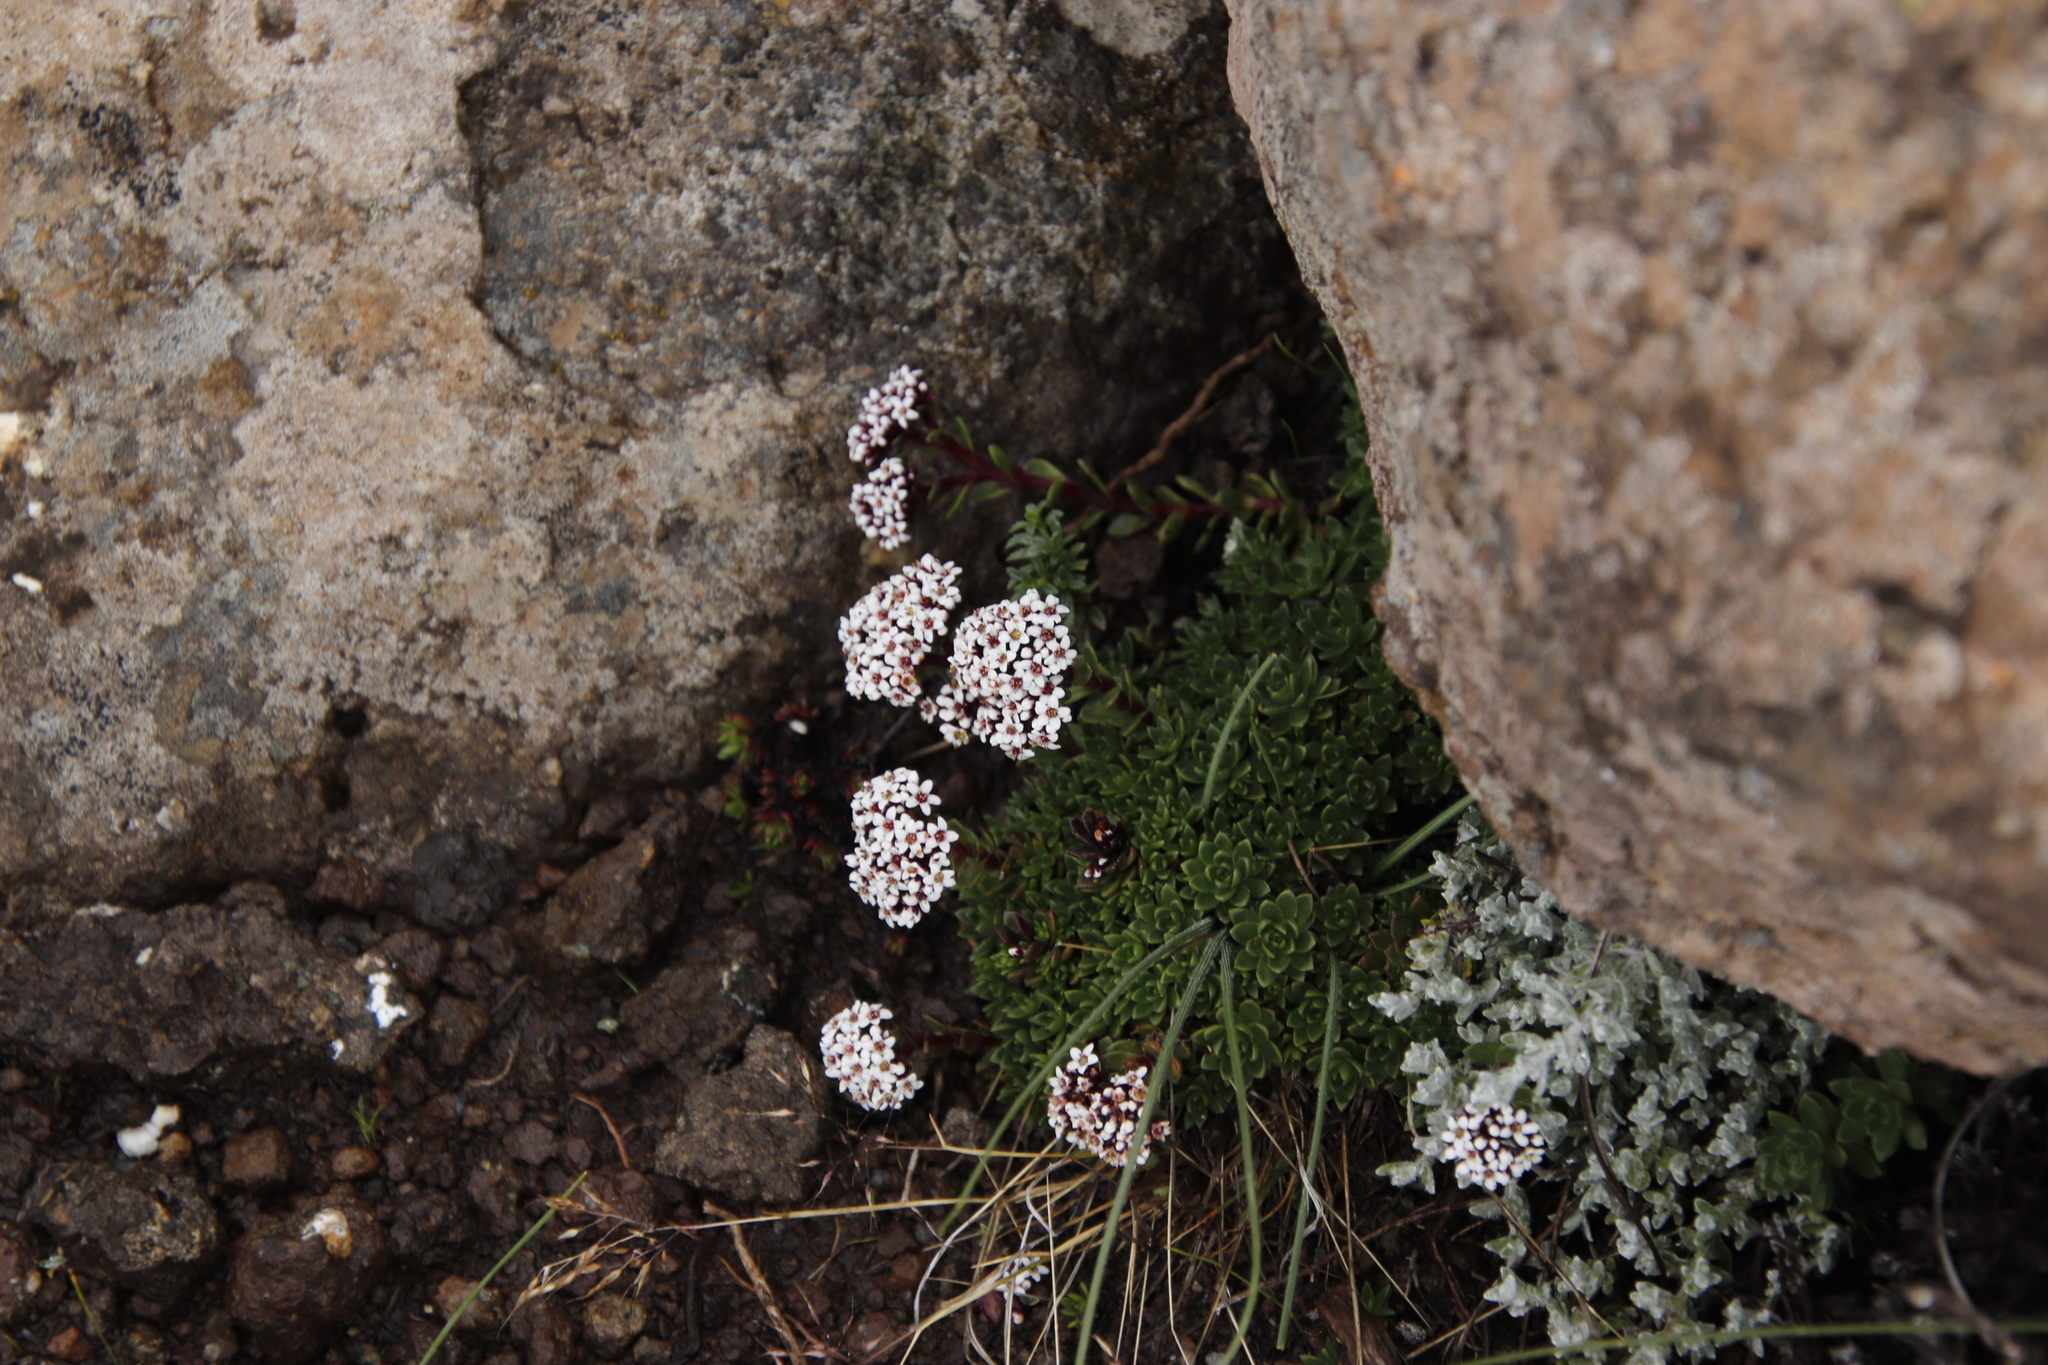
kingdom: Plantae
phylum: Tracheophyta
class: Magnoliopsida
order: Saxifragales
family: Crassulaceae
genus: Crassula
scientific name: Crassula setulosa
